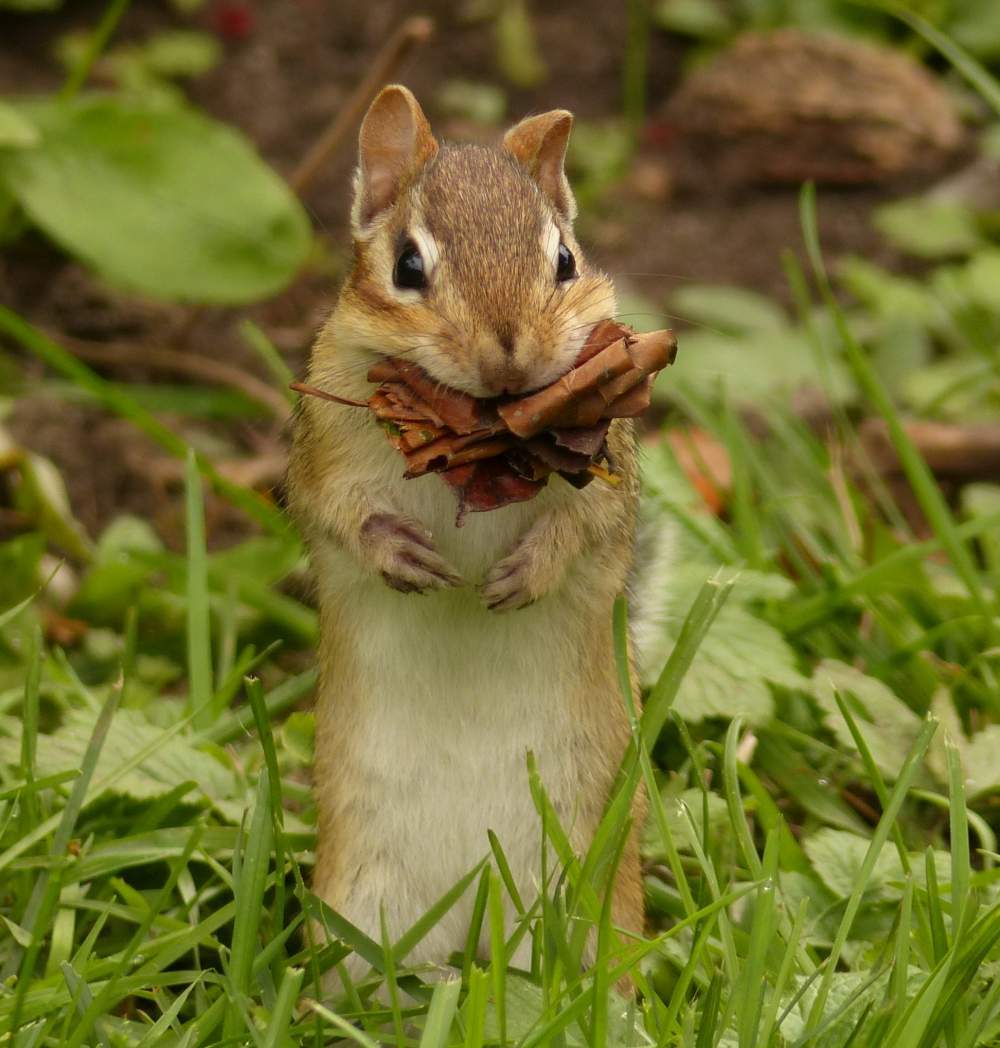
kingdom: Animalia
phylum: Chordata
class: Mammalia
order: Rodentia
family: Sciuridae
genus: Tamias
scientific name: Tamias striatus
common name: Eastern chipmunk
